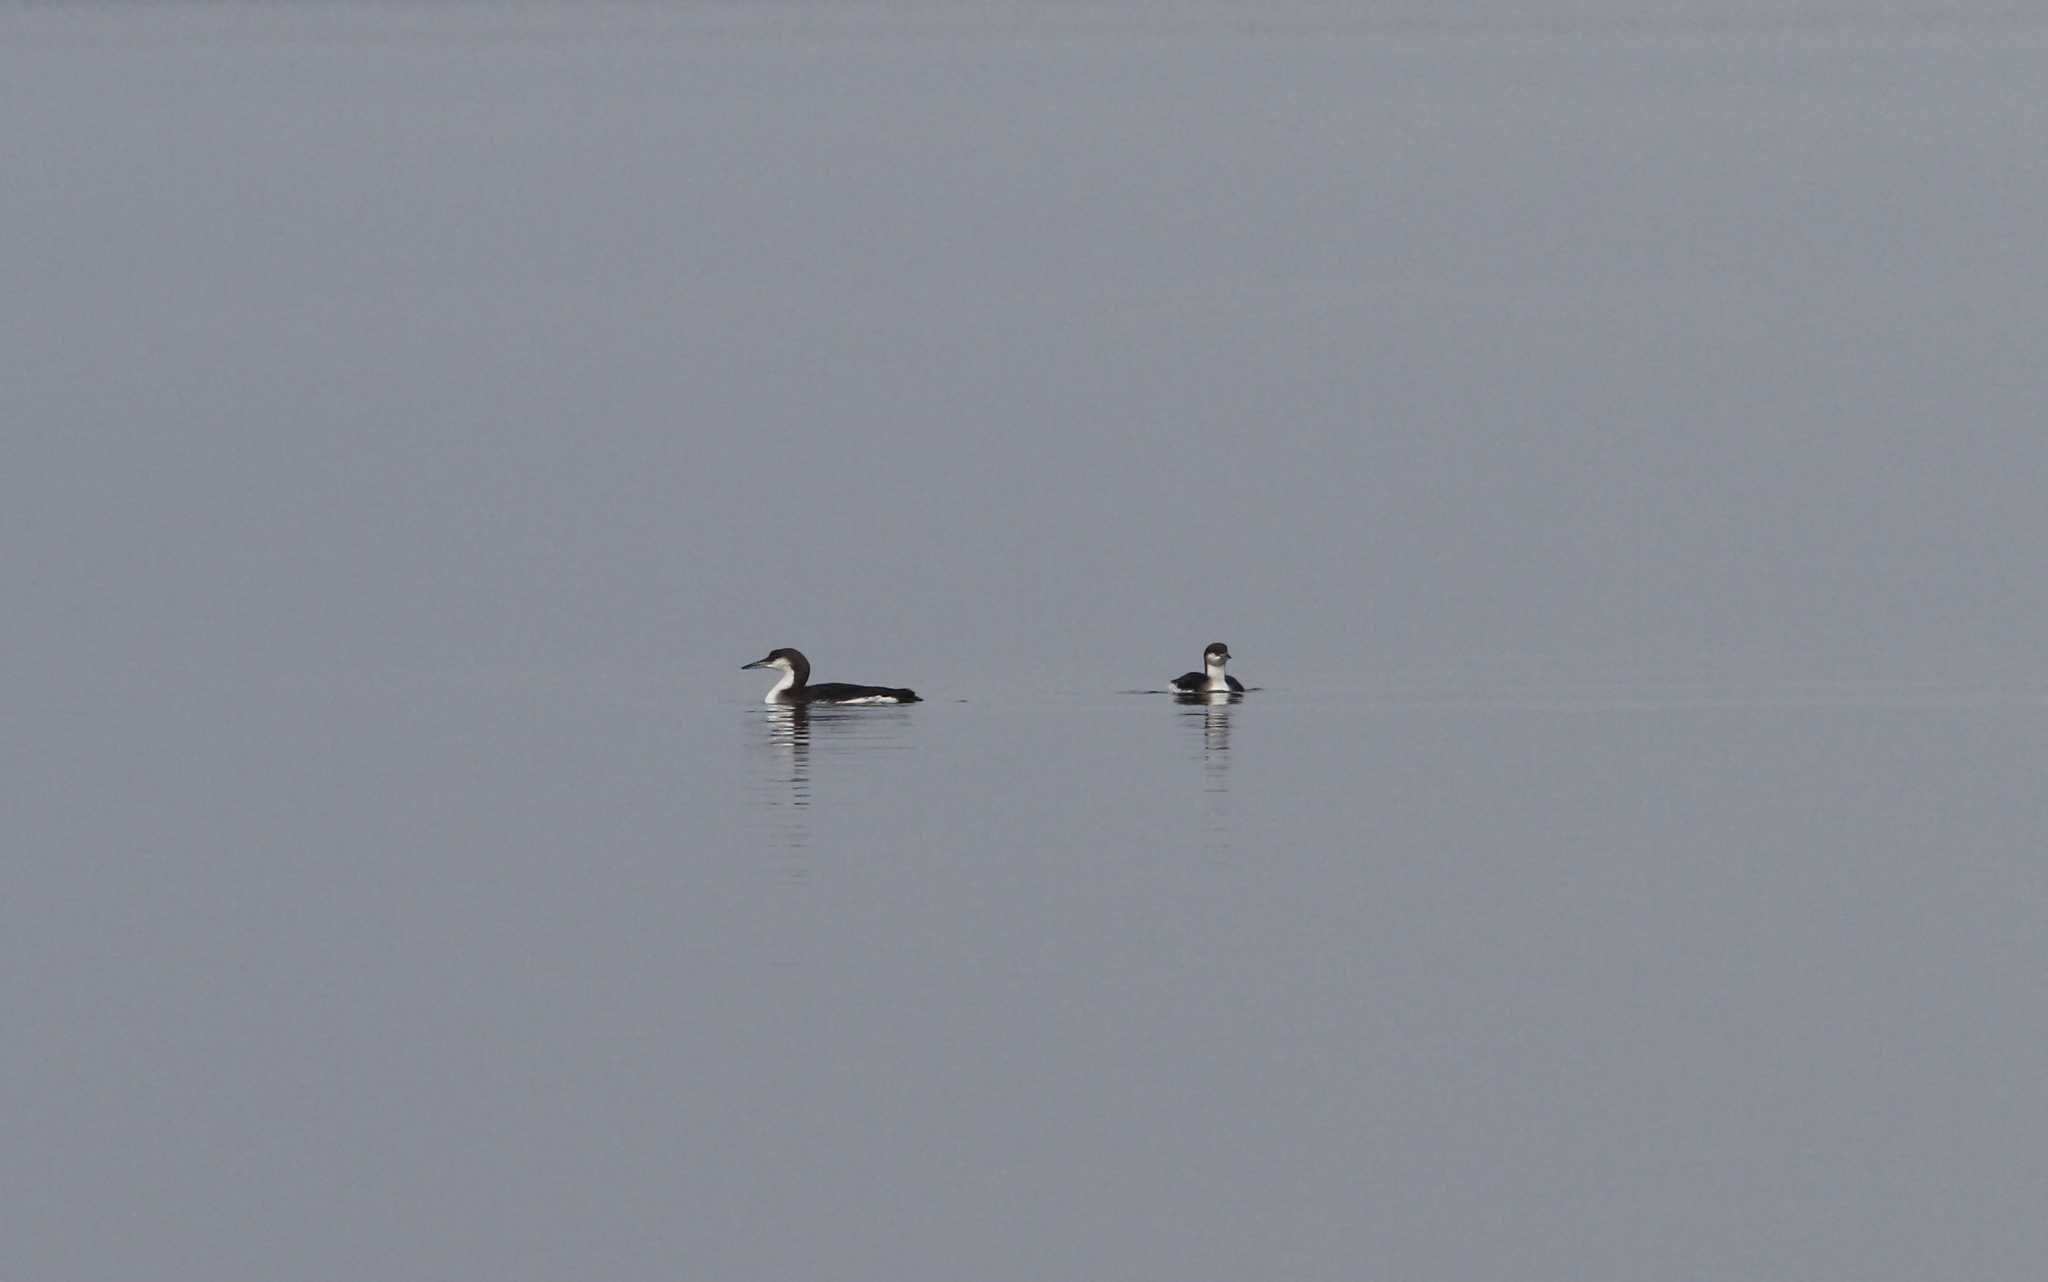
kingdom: Animalia
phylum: Chordata
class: Aves
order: Gaviiformes
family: Gaviidae
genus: Gavia
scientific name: Gavia arctica
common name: Black-throated loon
